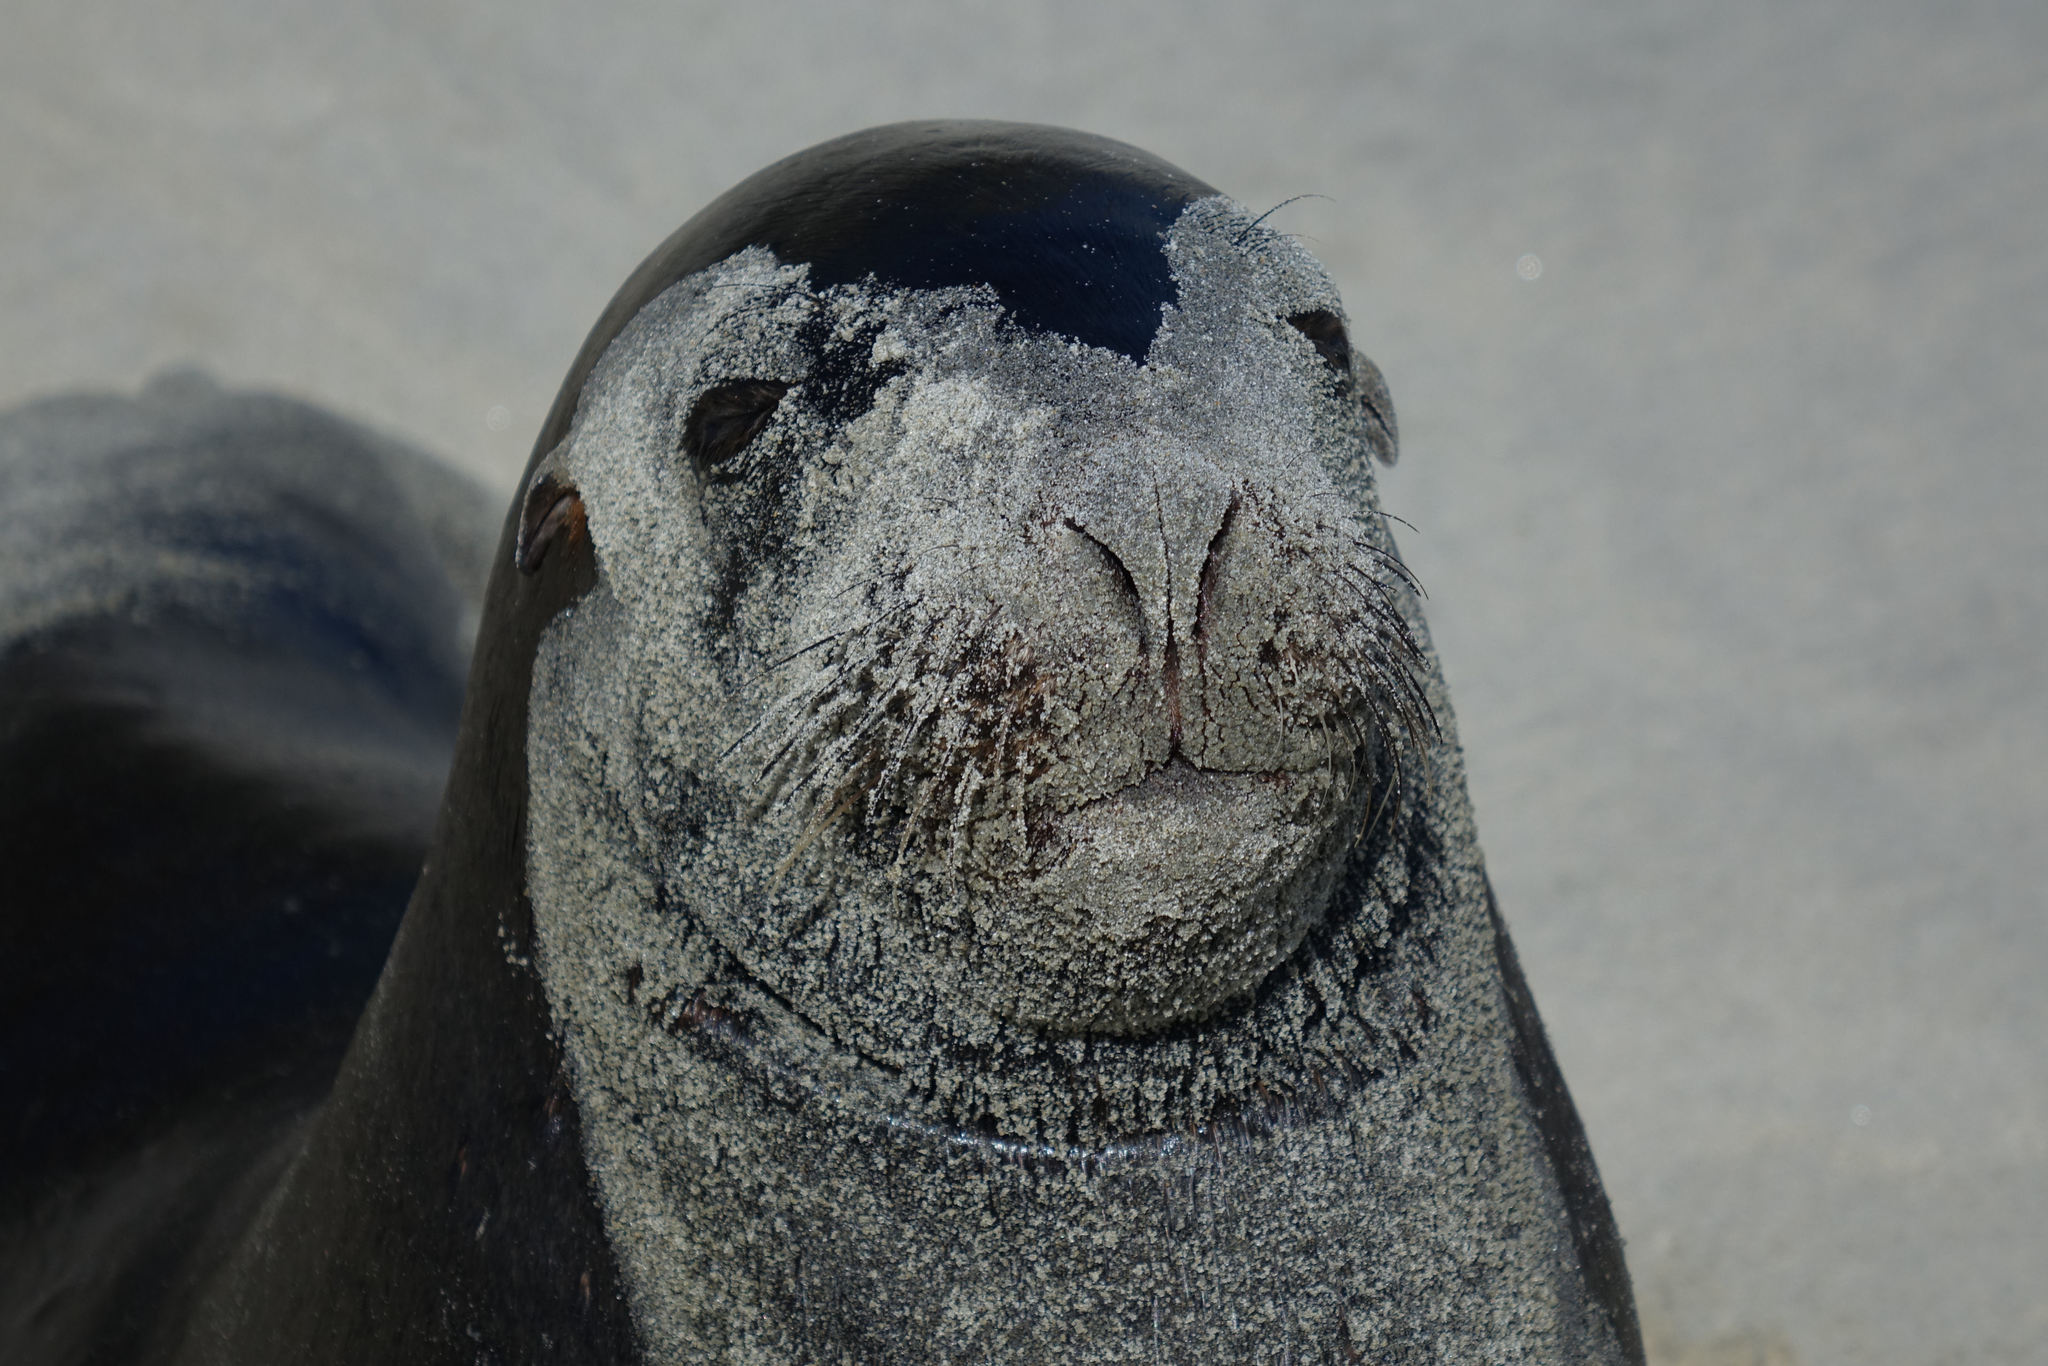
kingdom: Animalia
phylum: Chordata
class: Mammalia
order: Carnivora
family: Otariidae
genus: Phocarctos
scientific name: Phocarctos hookeri
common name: New zealand sea lion
